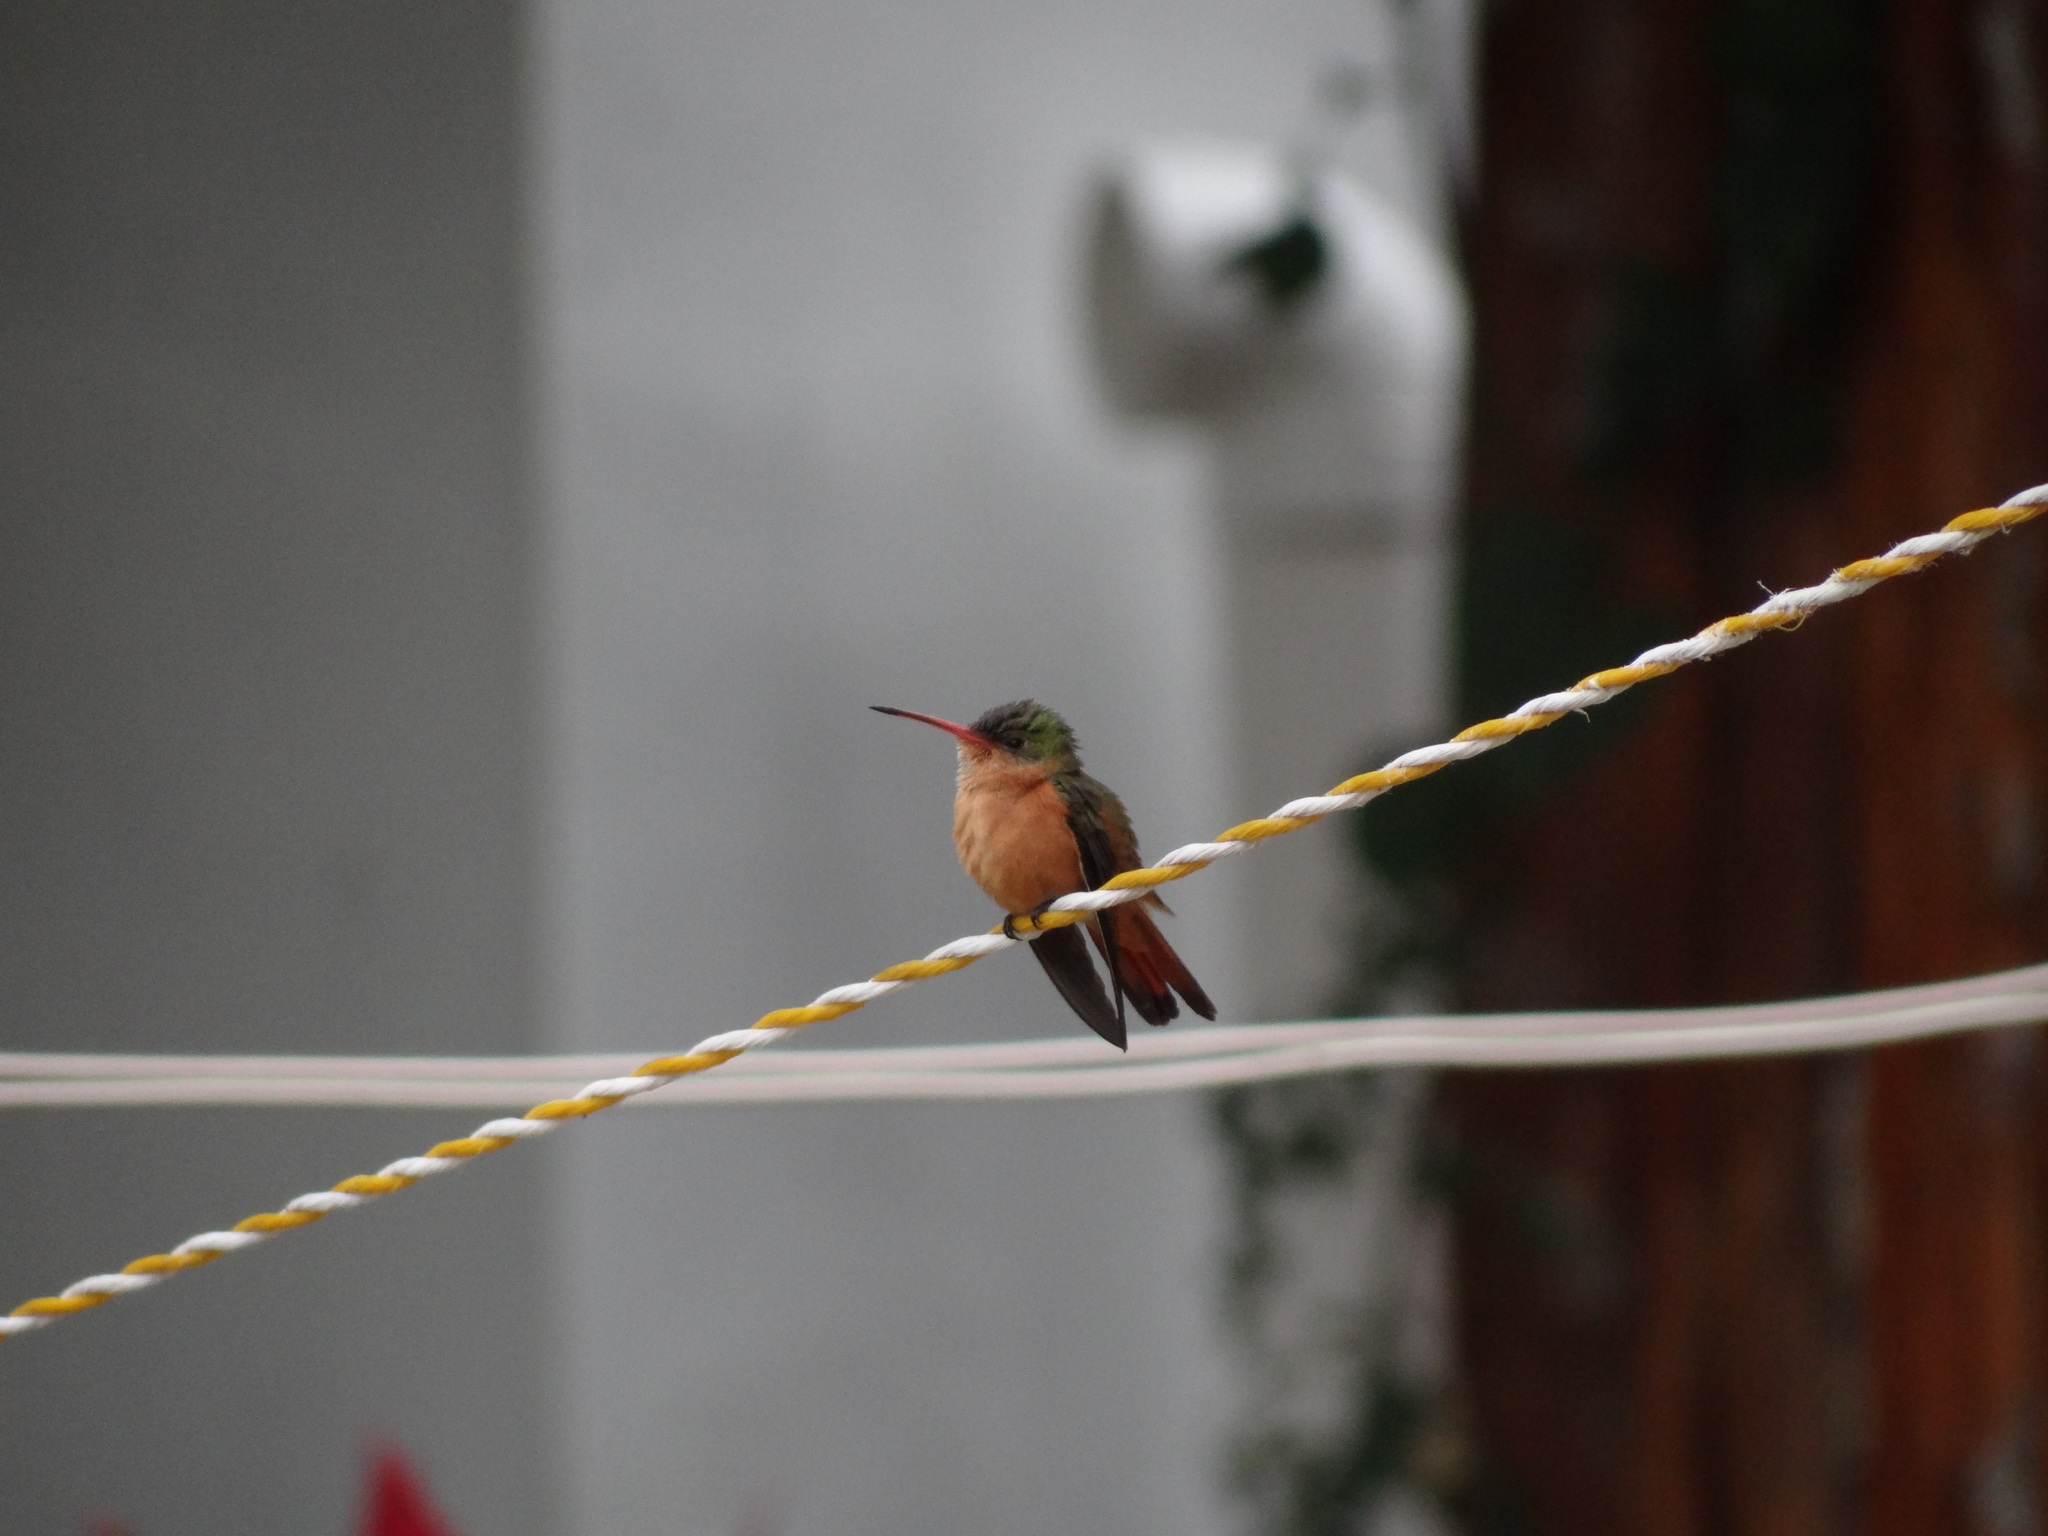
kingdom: Animalia
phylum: Chordata
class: Aves
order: Apodiformes
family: Trochilidae
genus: Amazilia
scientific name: Amazilia rutila
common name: Cinnamon hummingbird
